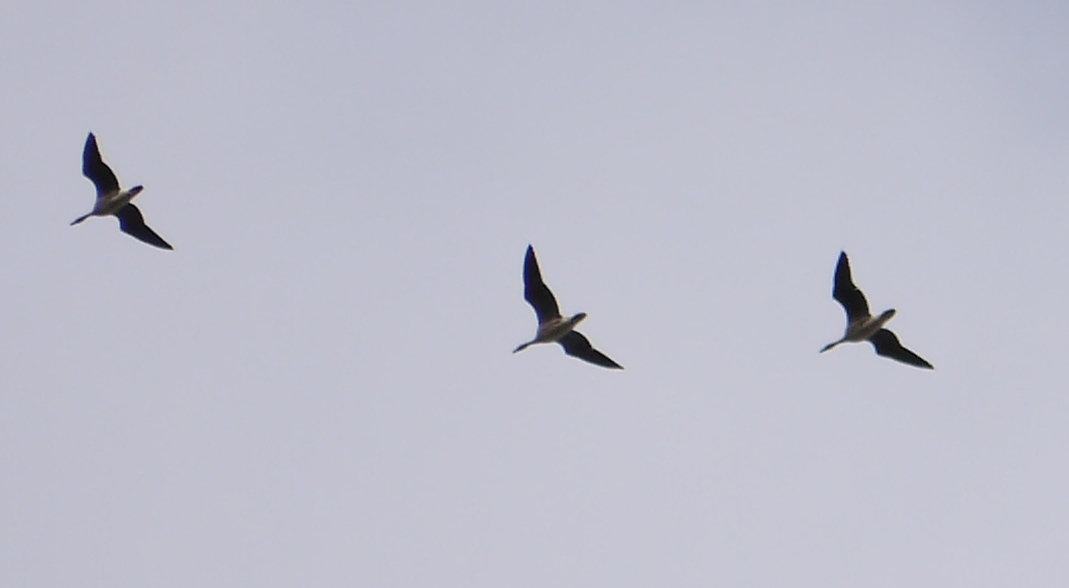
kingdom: Animalia
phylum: Chordata
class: Aves
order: Anseriformes
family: Anatidae
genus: Anser
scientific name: Anser anser
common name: Greylag goose
